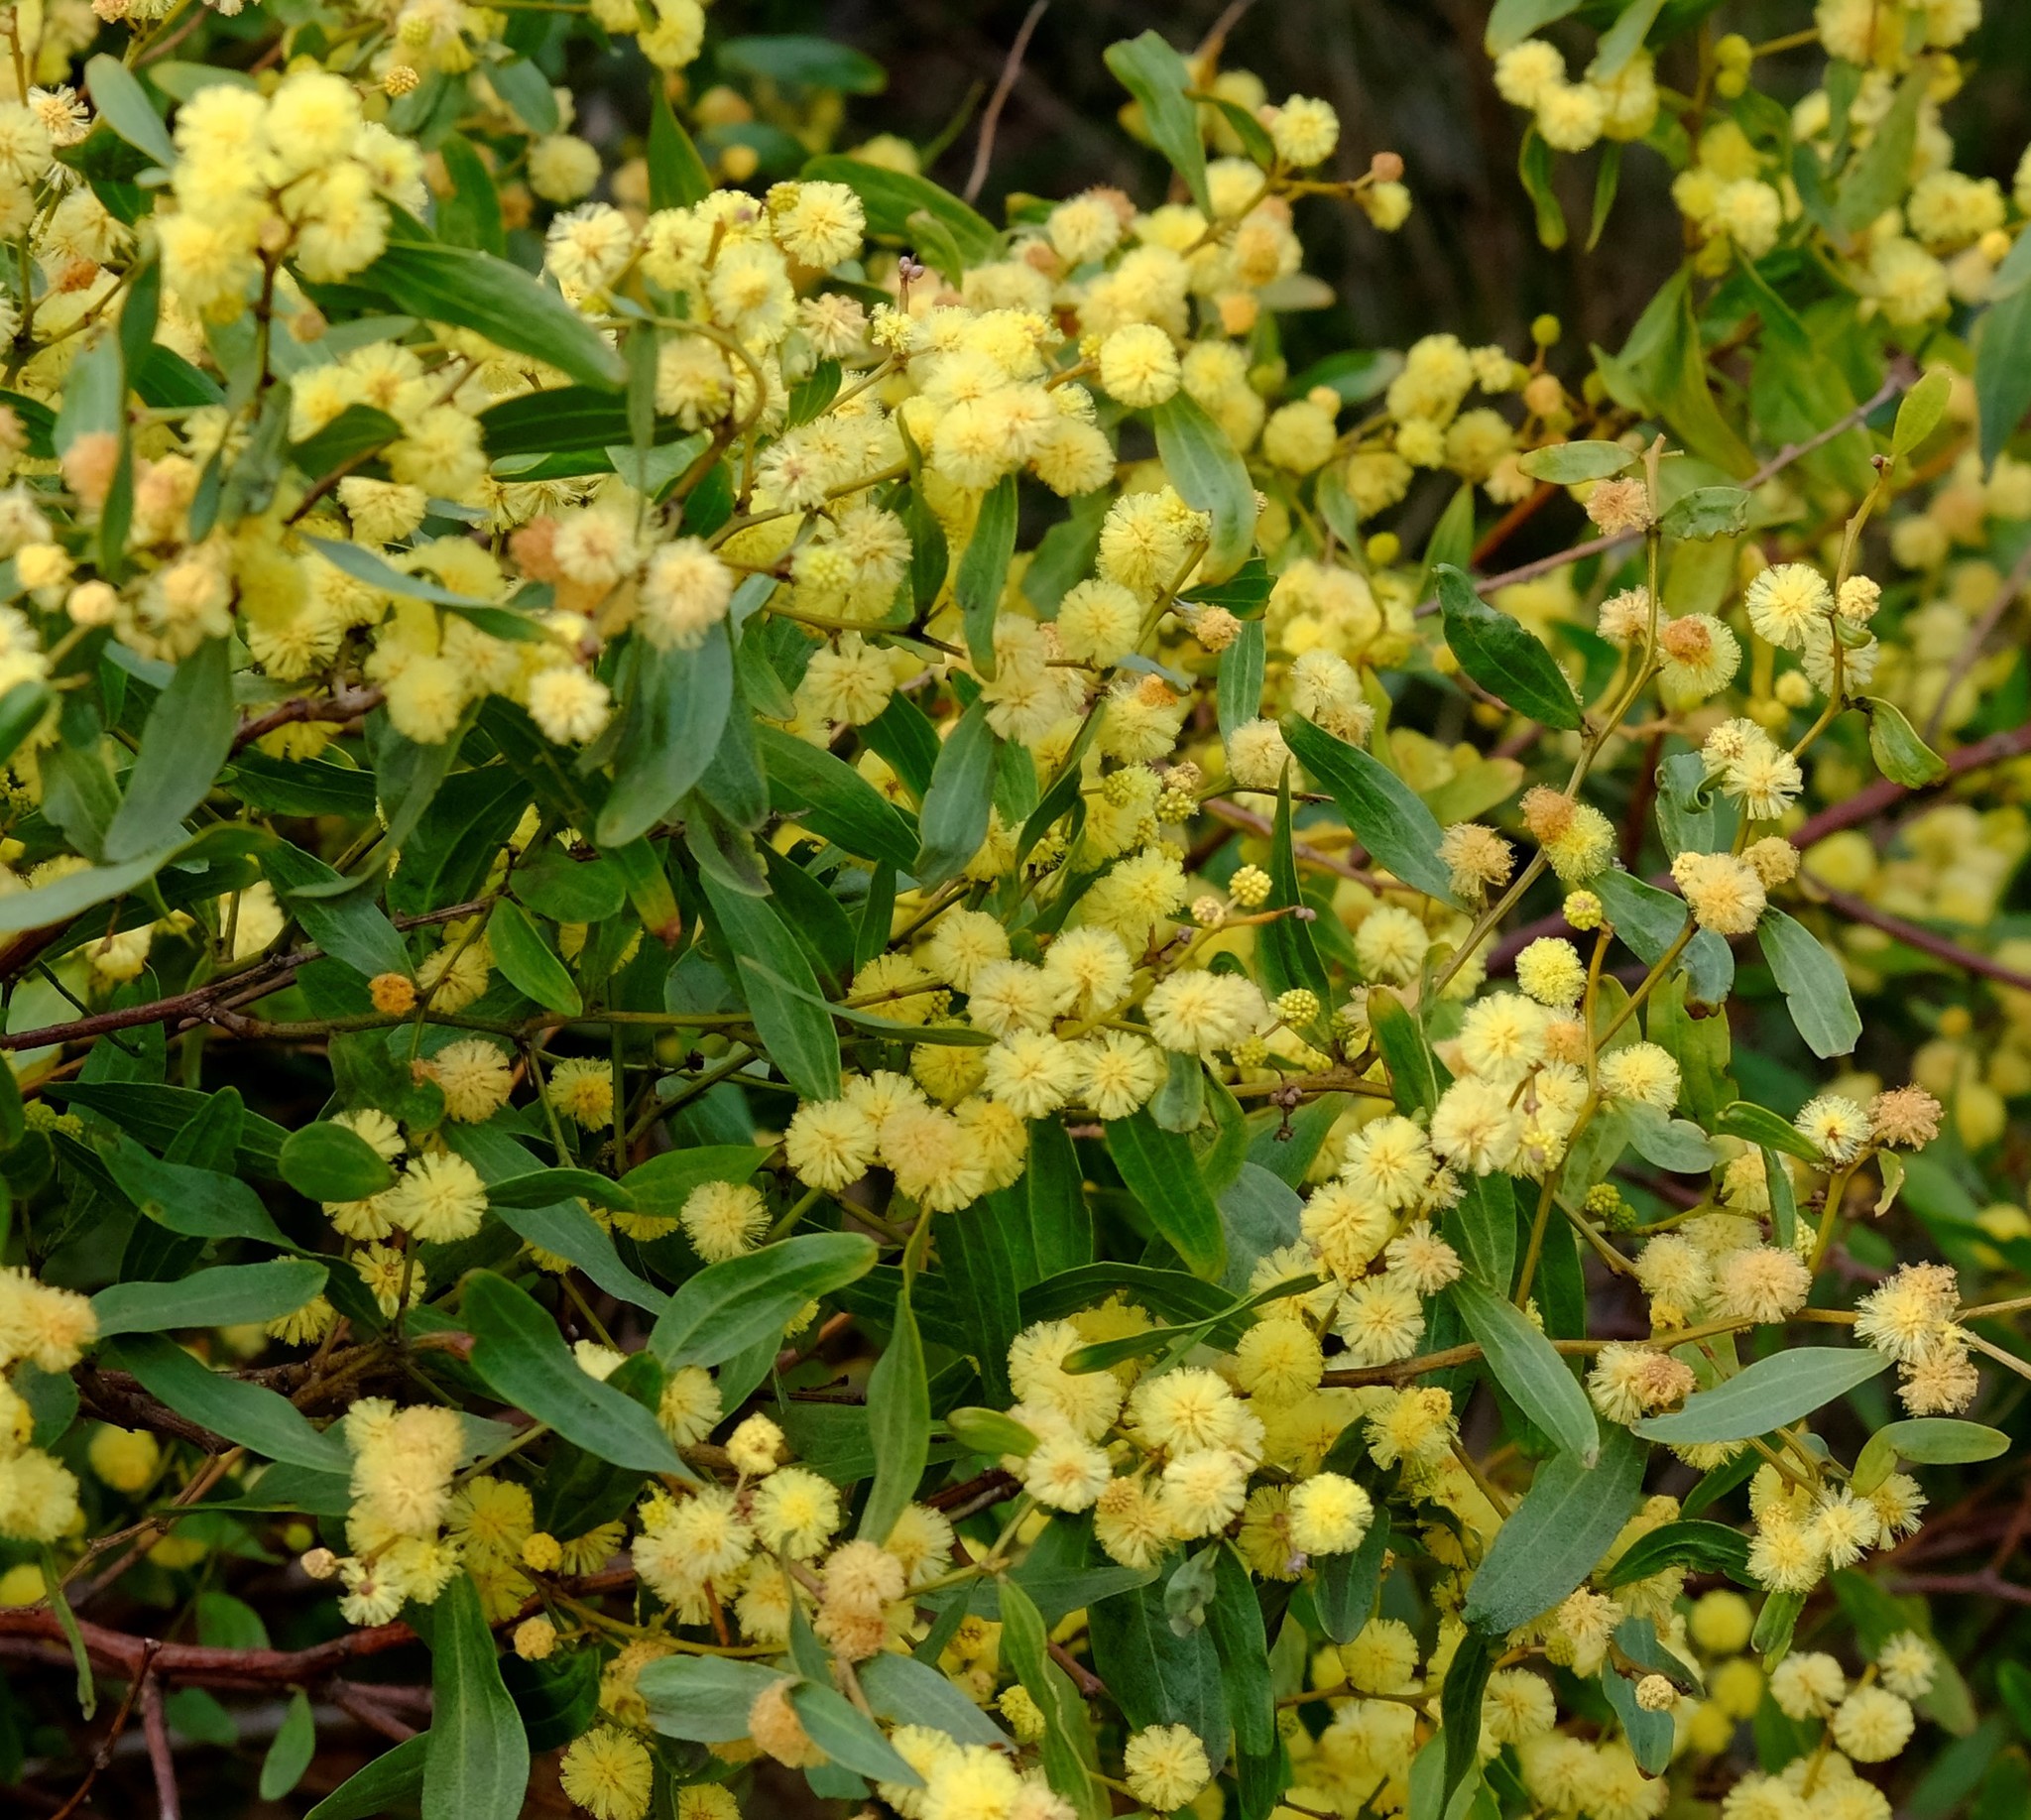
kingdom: Plantae
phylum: Tracheophyta
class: Magnoliopsida
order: Fabales
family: Fabaceae
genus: Acacia
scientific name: Acacia verniciflua
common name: Varnish wattle
